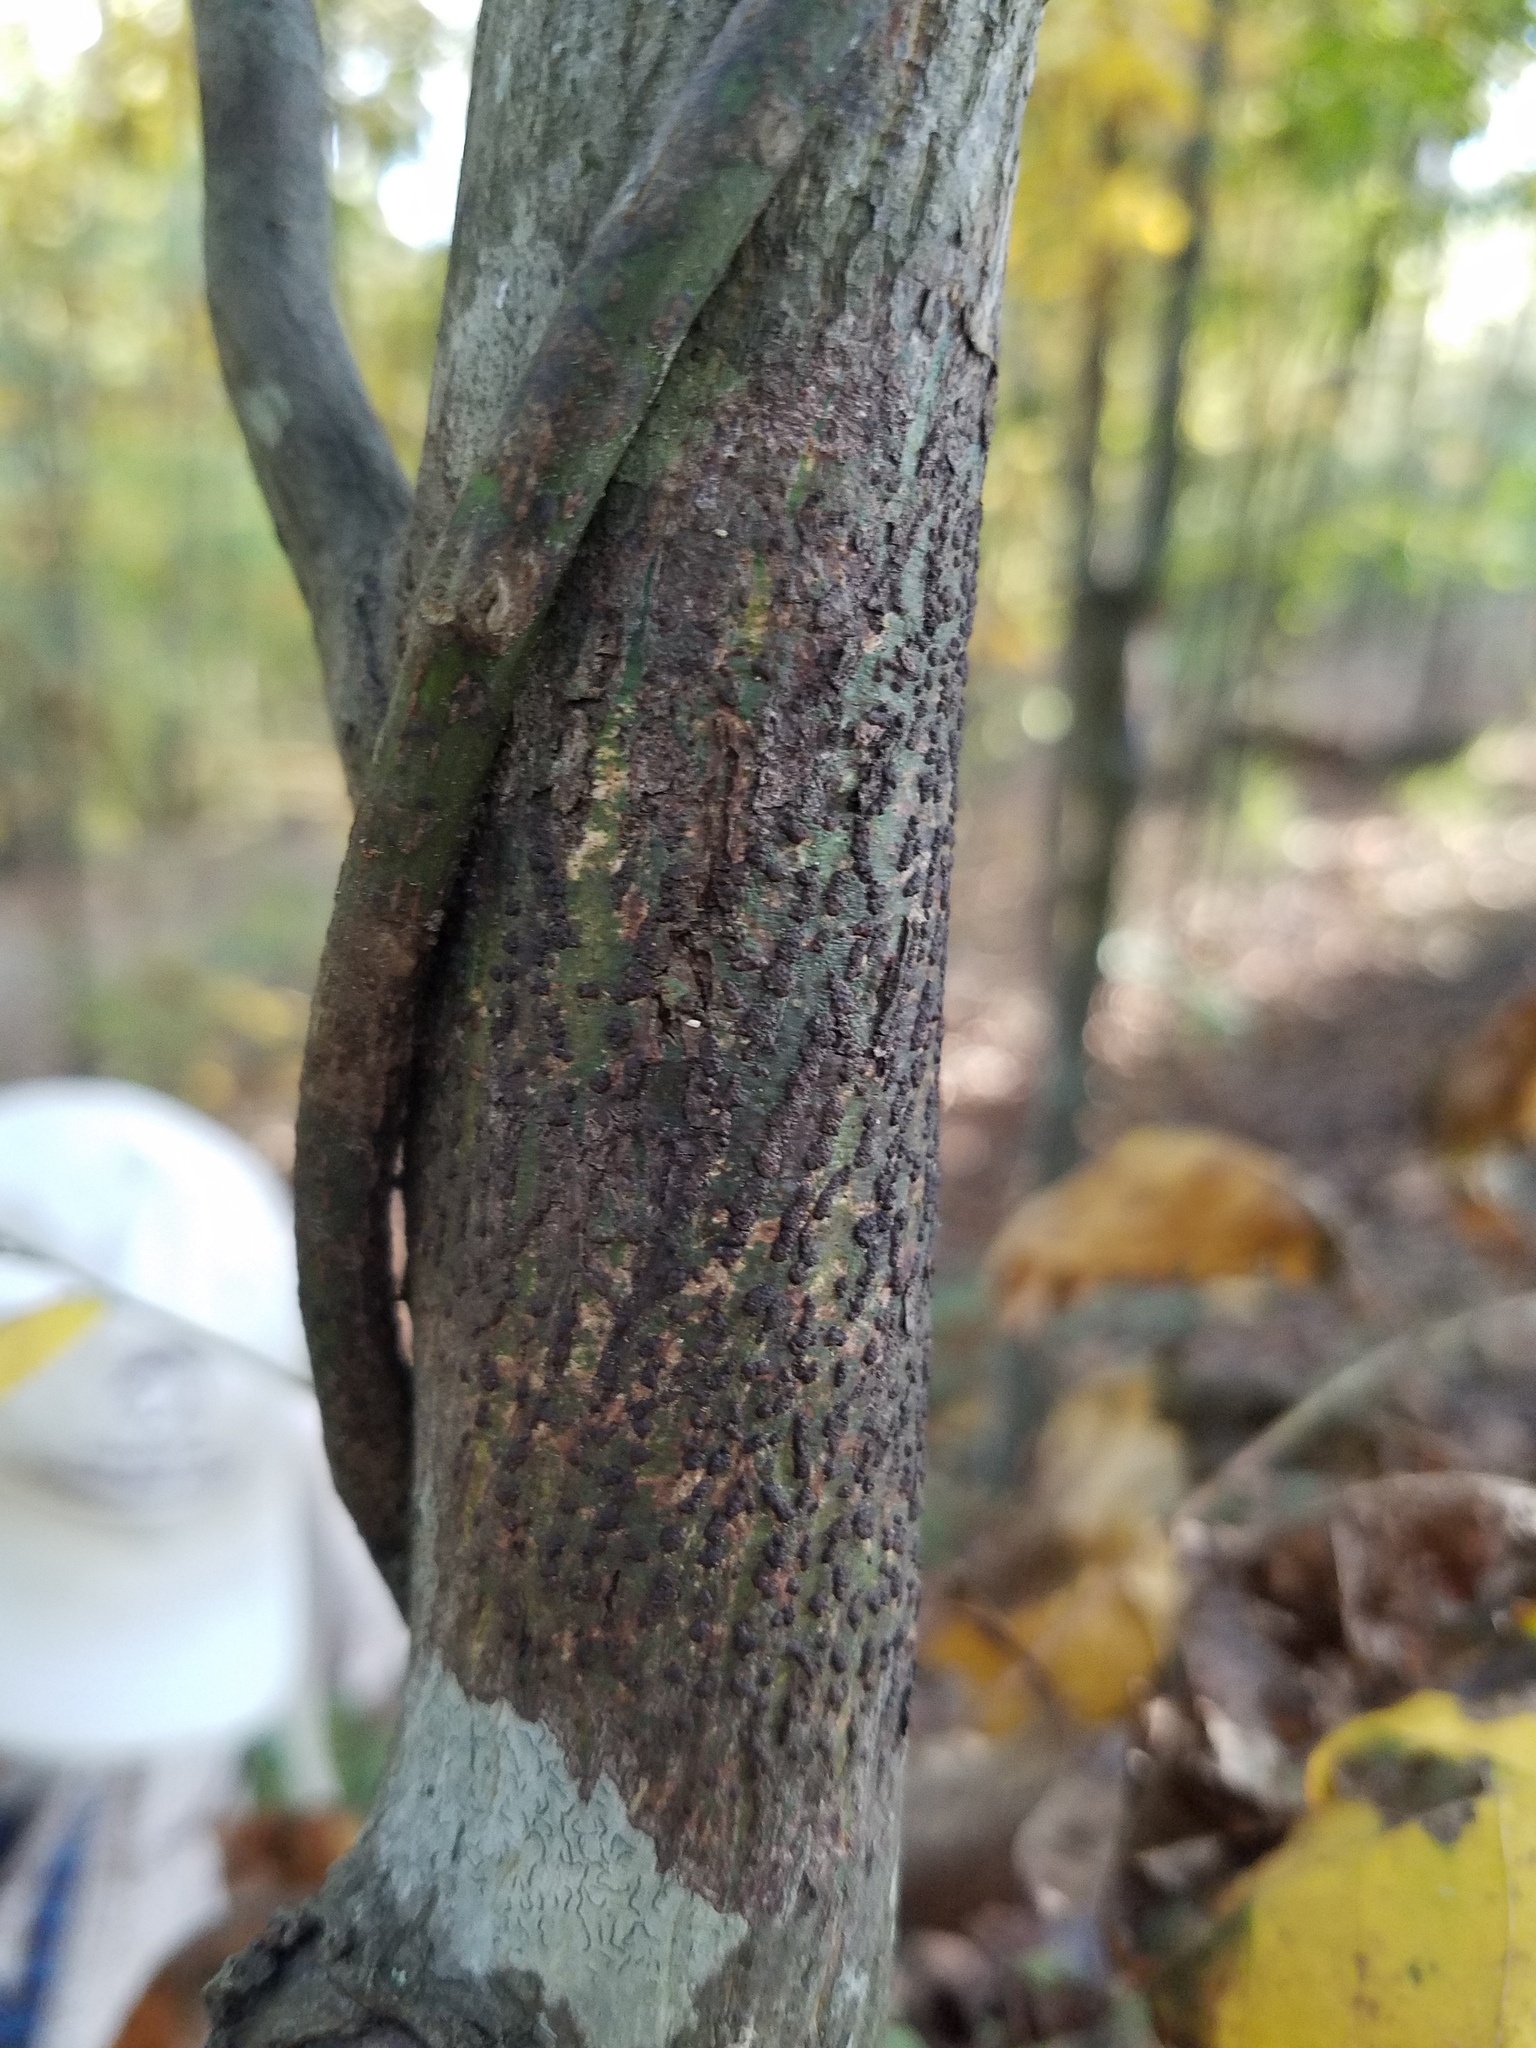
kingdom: Fungi
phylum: Ascomycota
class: Dothideomycetes
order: Trypetheliales
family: Trypetheliaceae
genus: Bathelium
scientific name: Bathelium carolinianum
